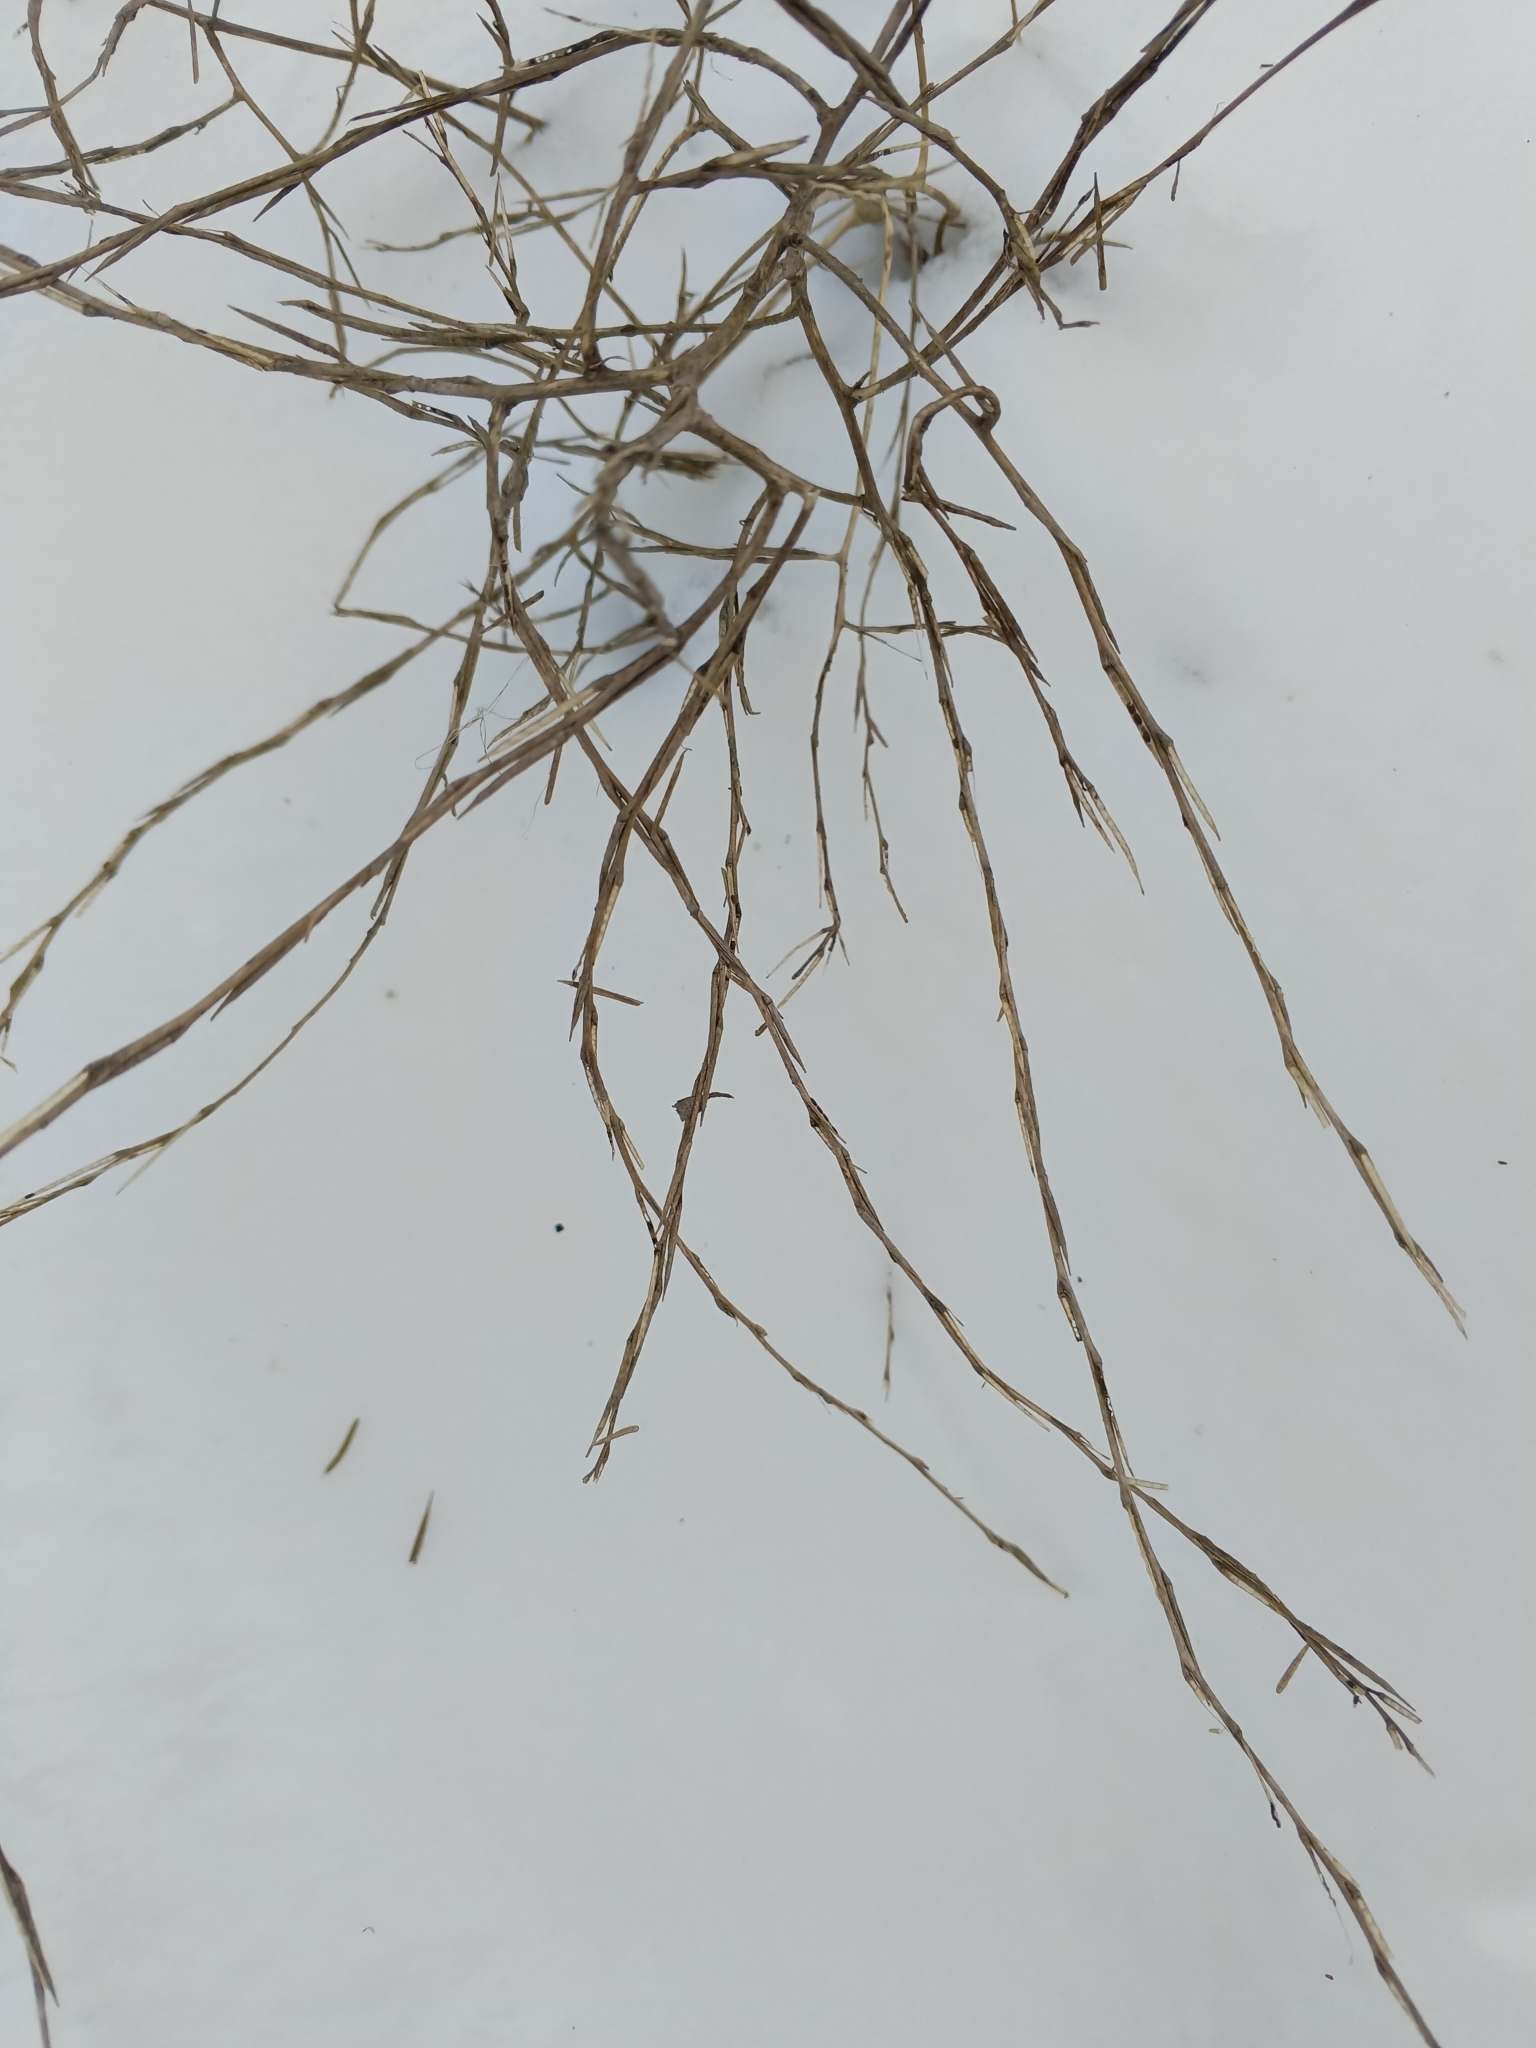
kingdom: Plantae
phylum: Tracheophyta
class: Magnoliopsida
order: Brassicales
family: Brassicaceae
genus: Sisymbrium
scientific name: Sisymbrium officinale
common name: Hedge mustard
